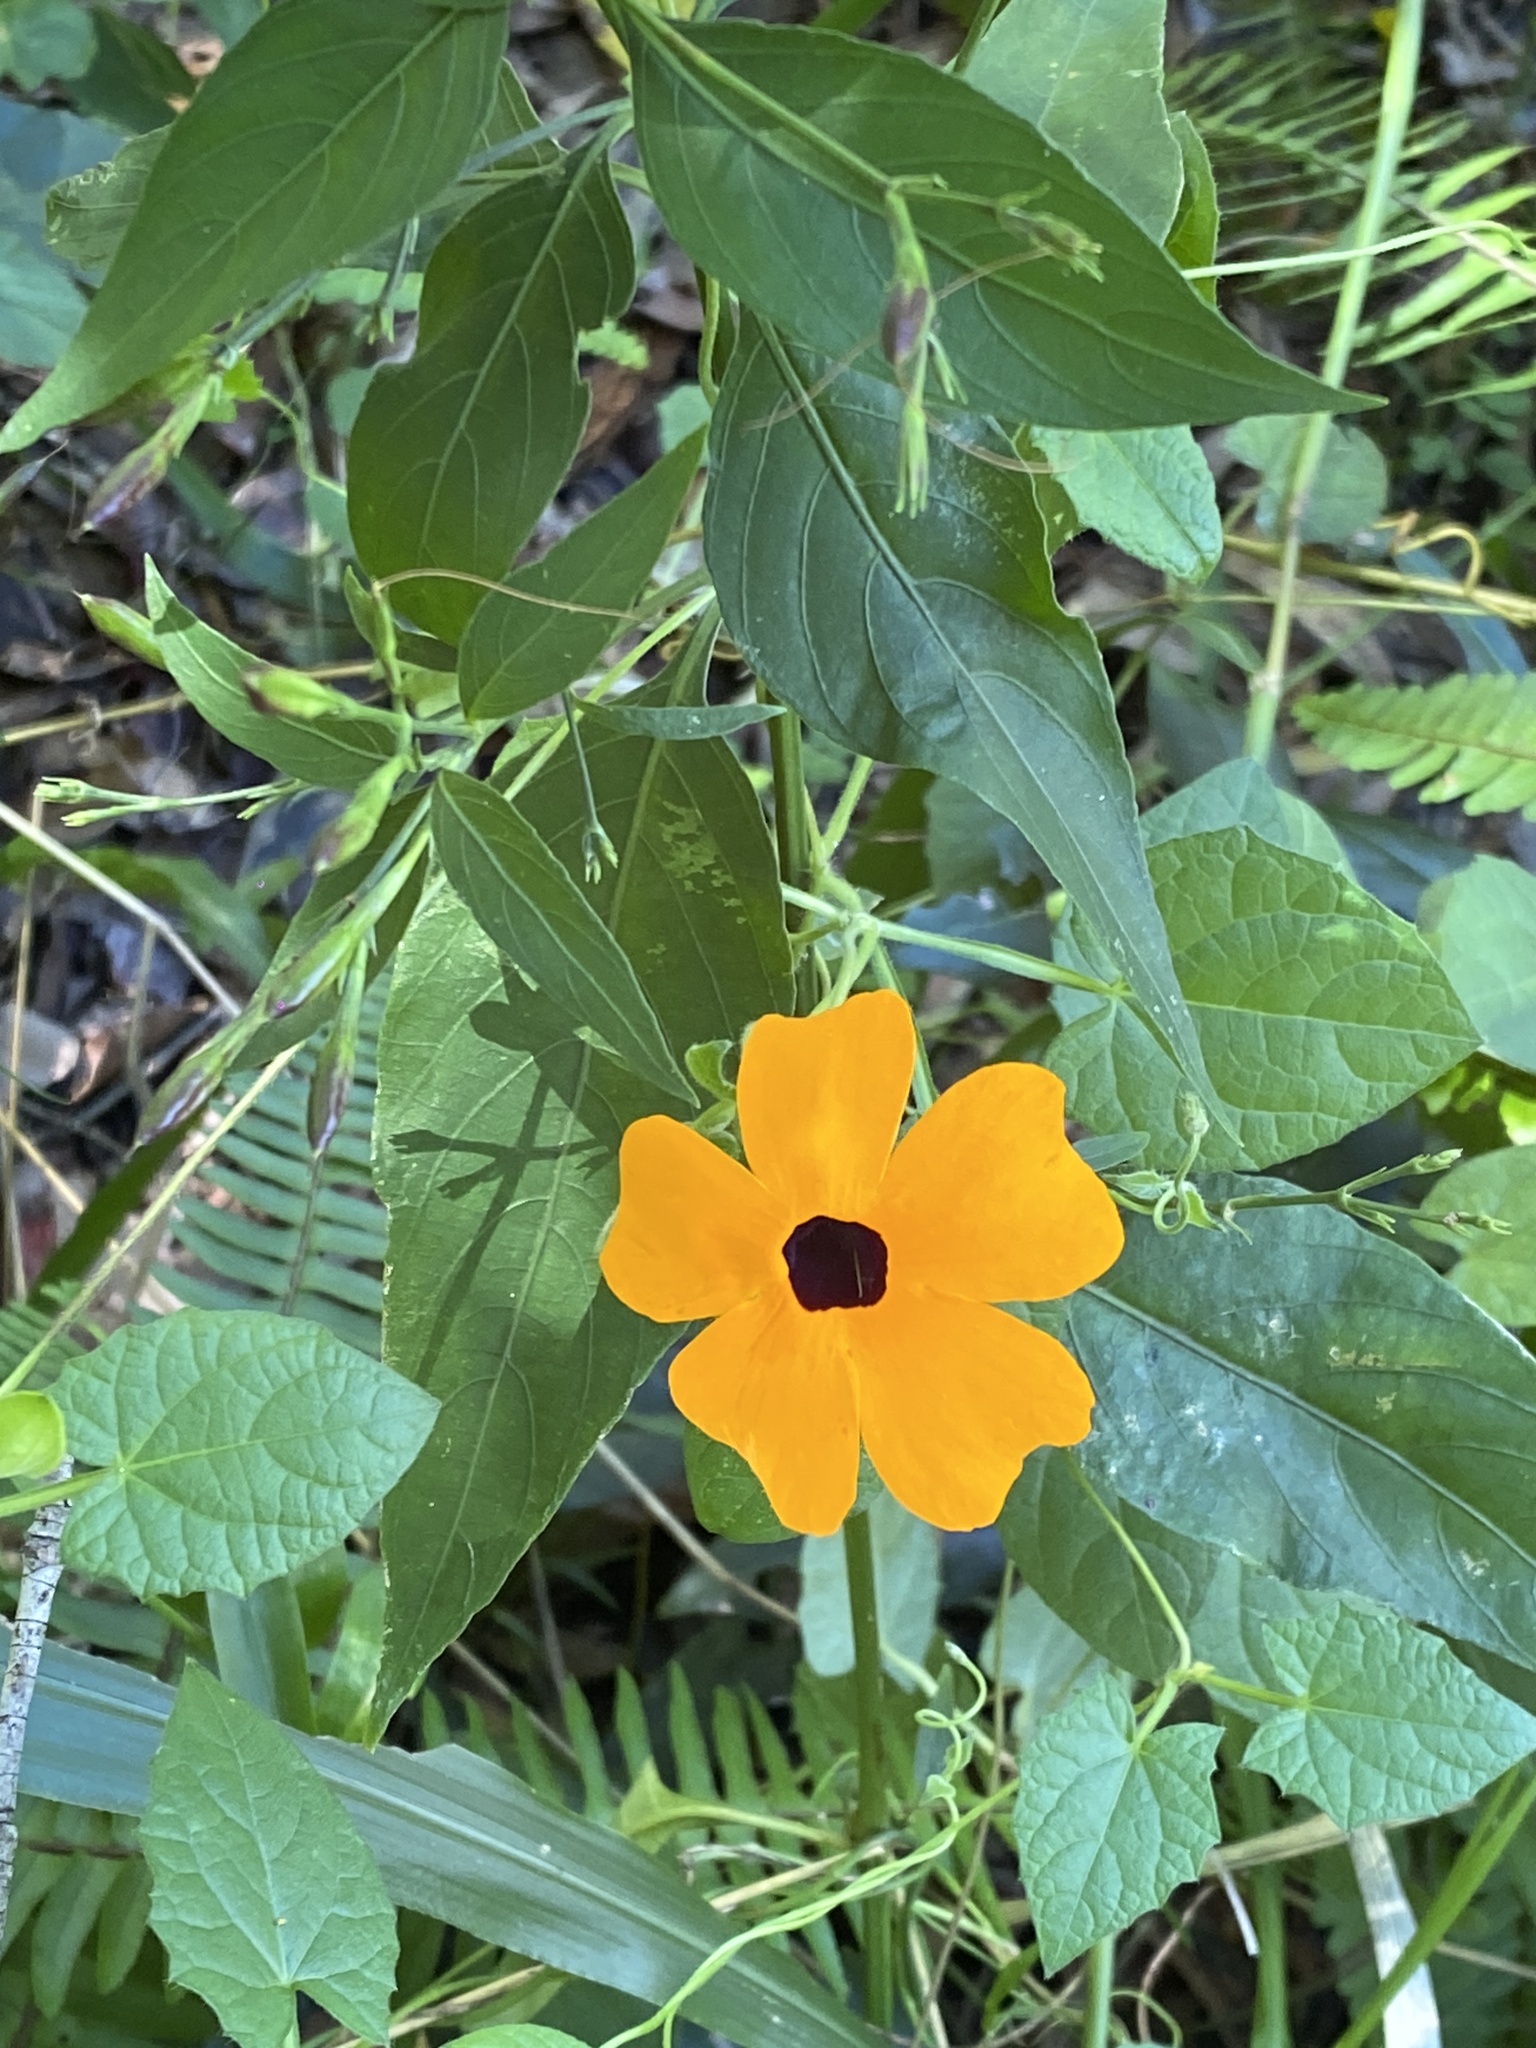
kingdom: Plantae
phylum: Tracheophyta
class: Magnoliopsida
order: Lamiales
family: Acanthaceae
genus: Thunbergia
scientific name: Thunbergia alata
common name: Blackeyed susan vine
